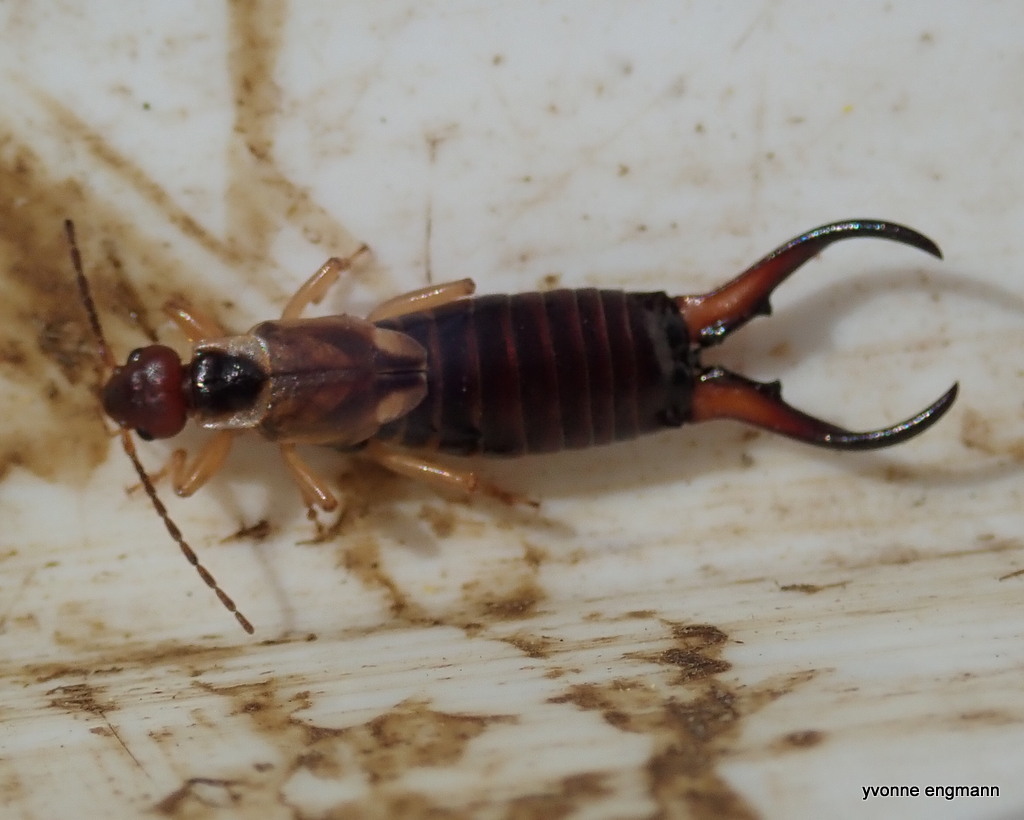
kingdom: Animalia
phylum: Arthropoda
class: Insecta
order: Dermaptera
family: Forficulidae
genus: Forficula
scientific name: Forficula
